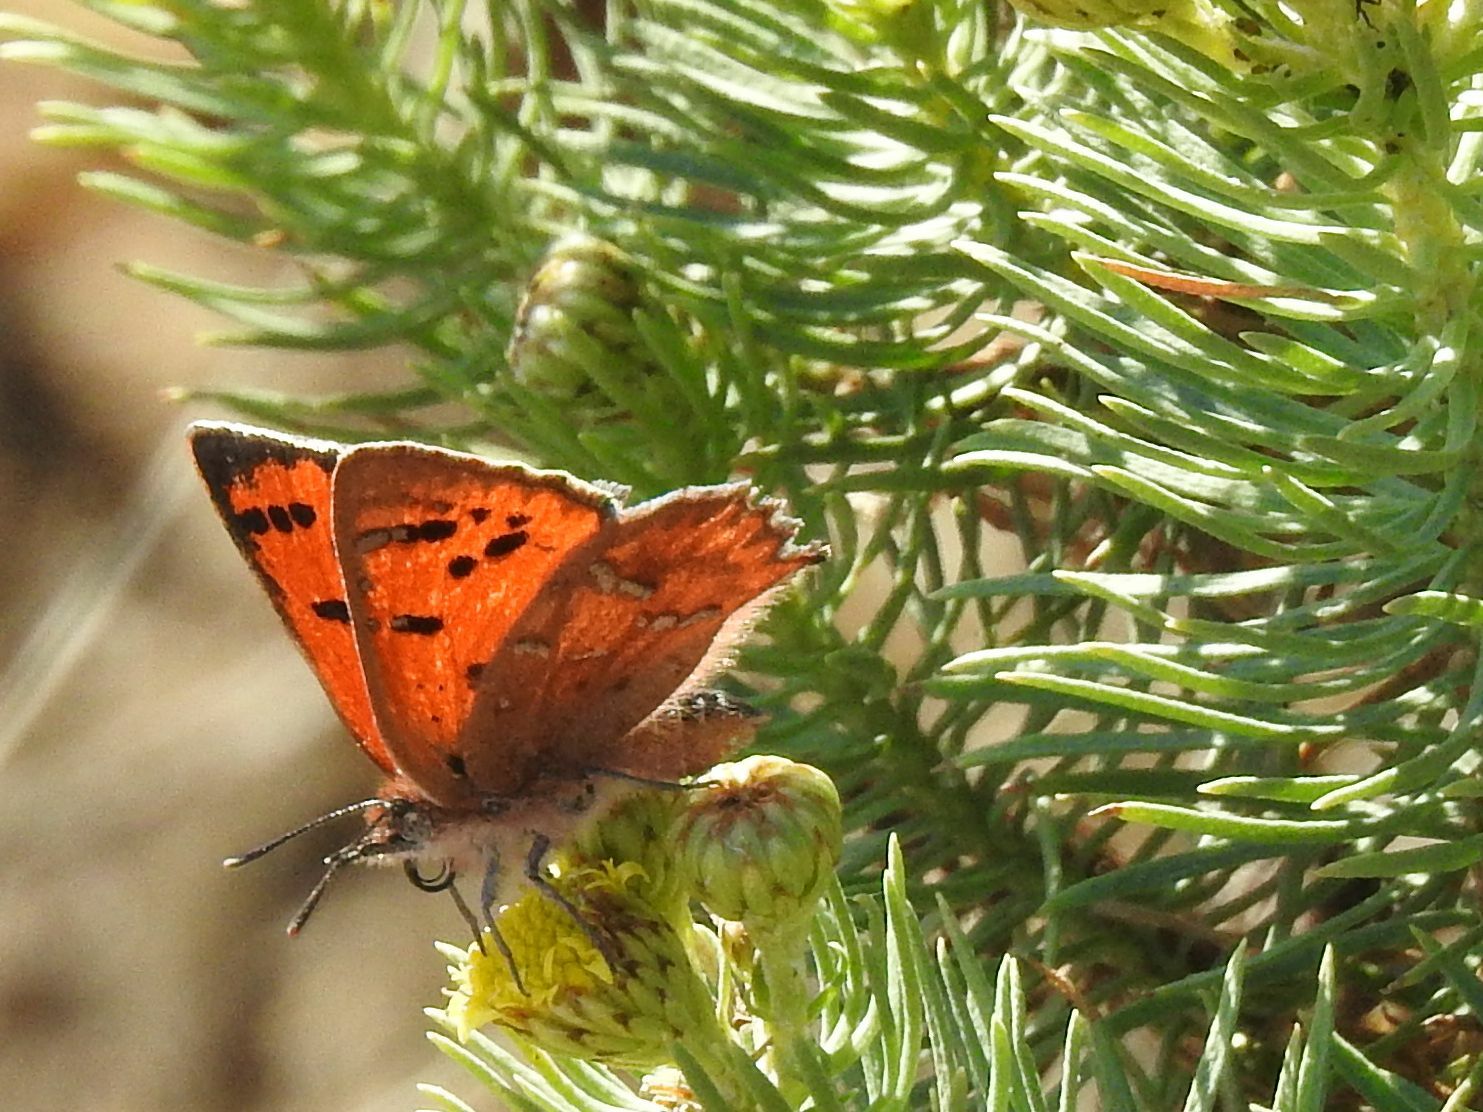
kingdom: Animalia
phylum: Arthropoda
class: Insecta
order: Lepidoptera
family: Lycaenidae
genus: Zeritis
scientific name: Zeritis aethon
